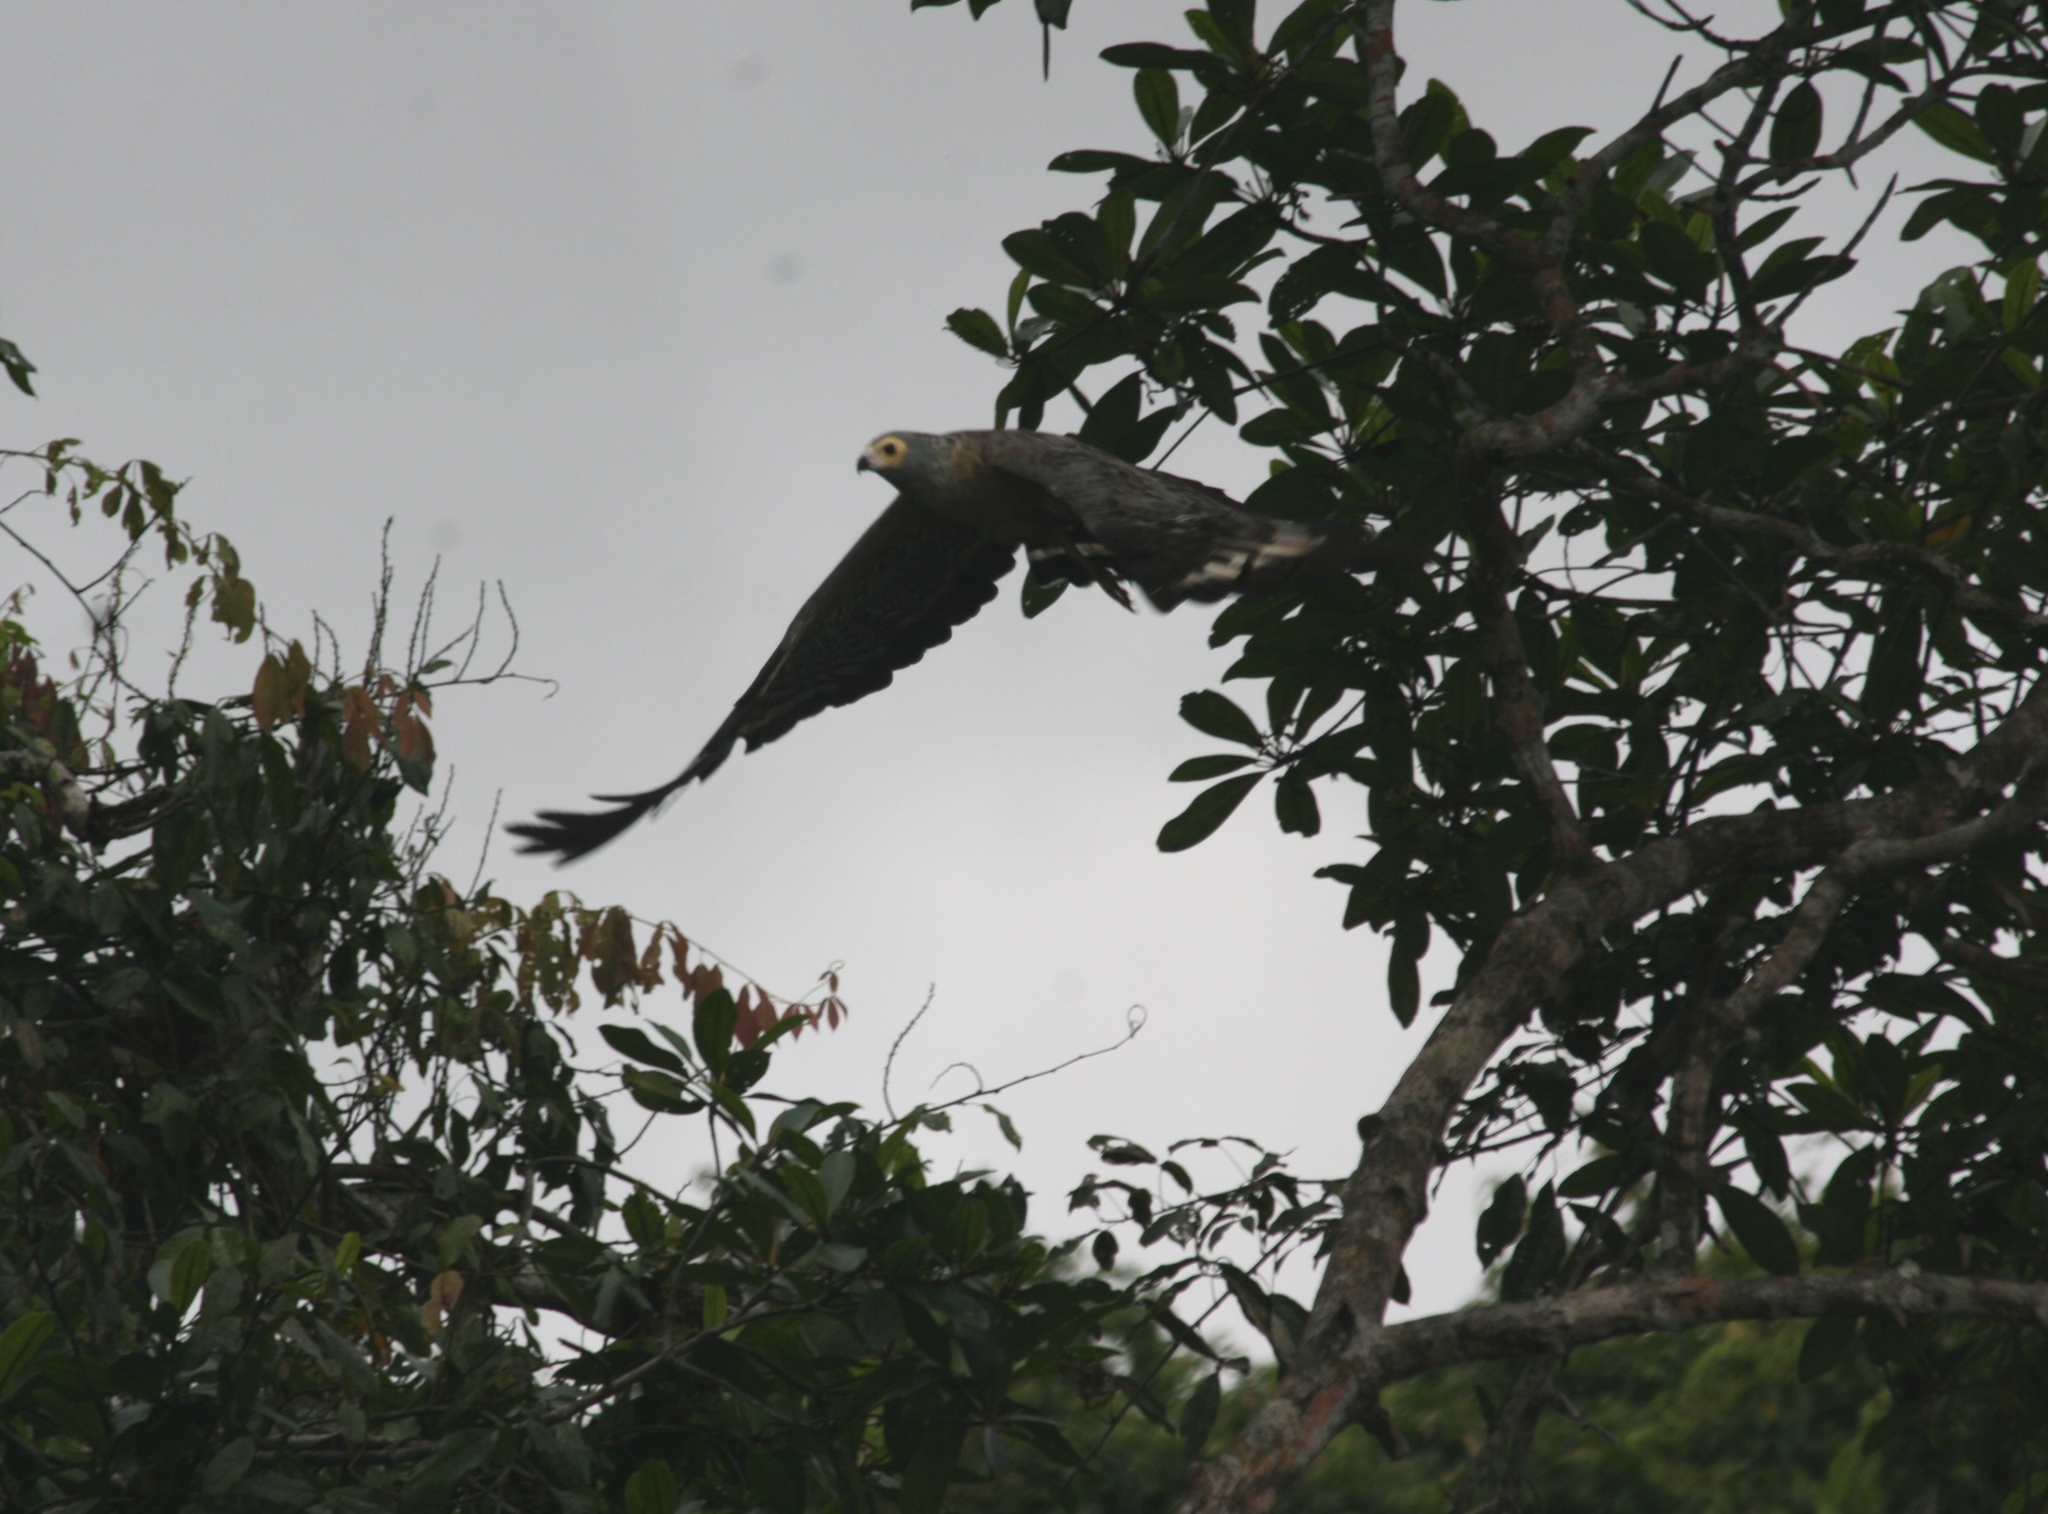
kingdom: Animalia
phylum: Chordata
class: Aves
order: Accipitriformes
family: Accipitridae
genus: Polyboroides
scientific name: Polyboroides typus
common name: African harrier-hawk
